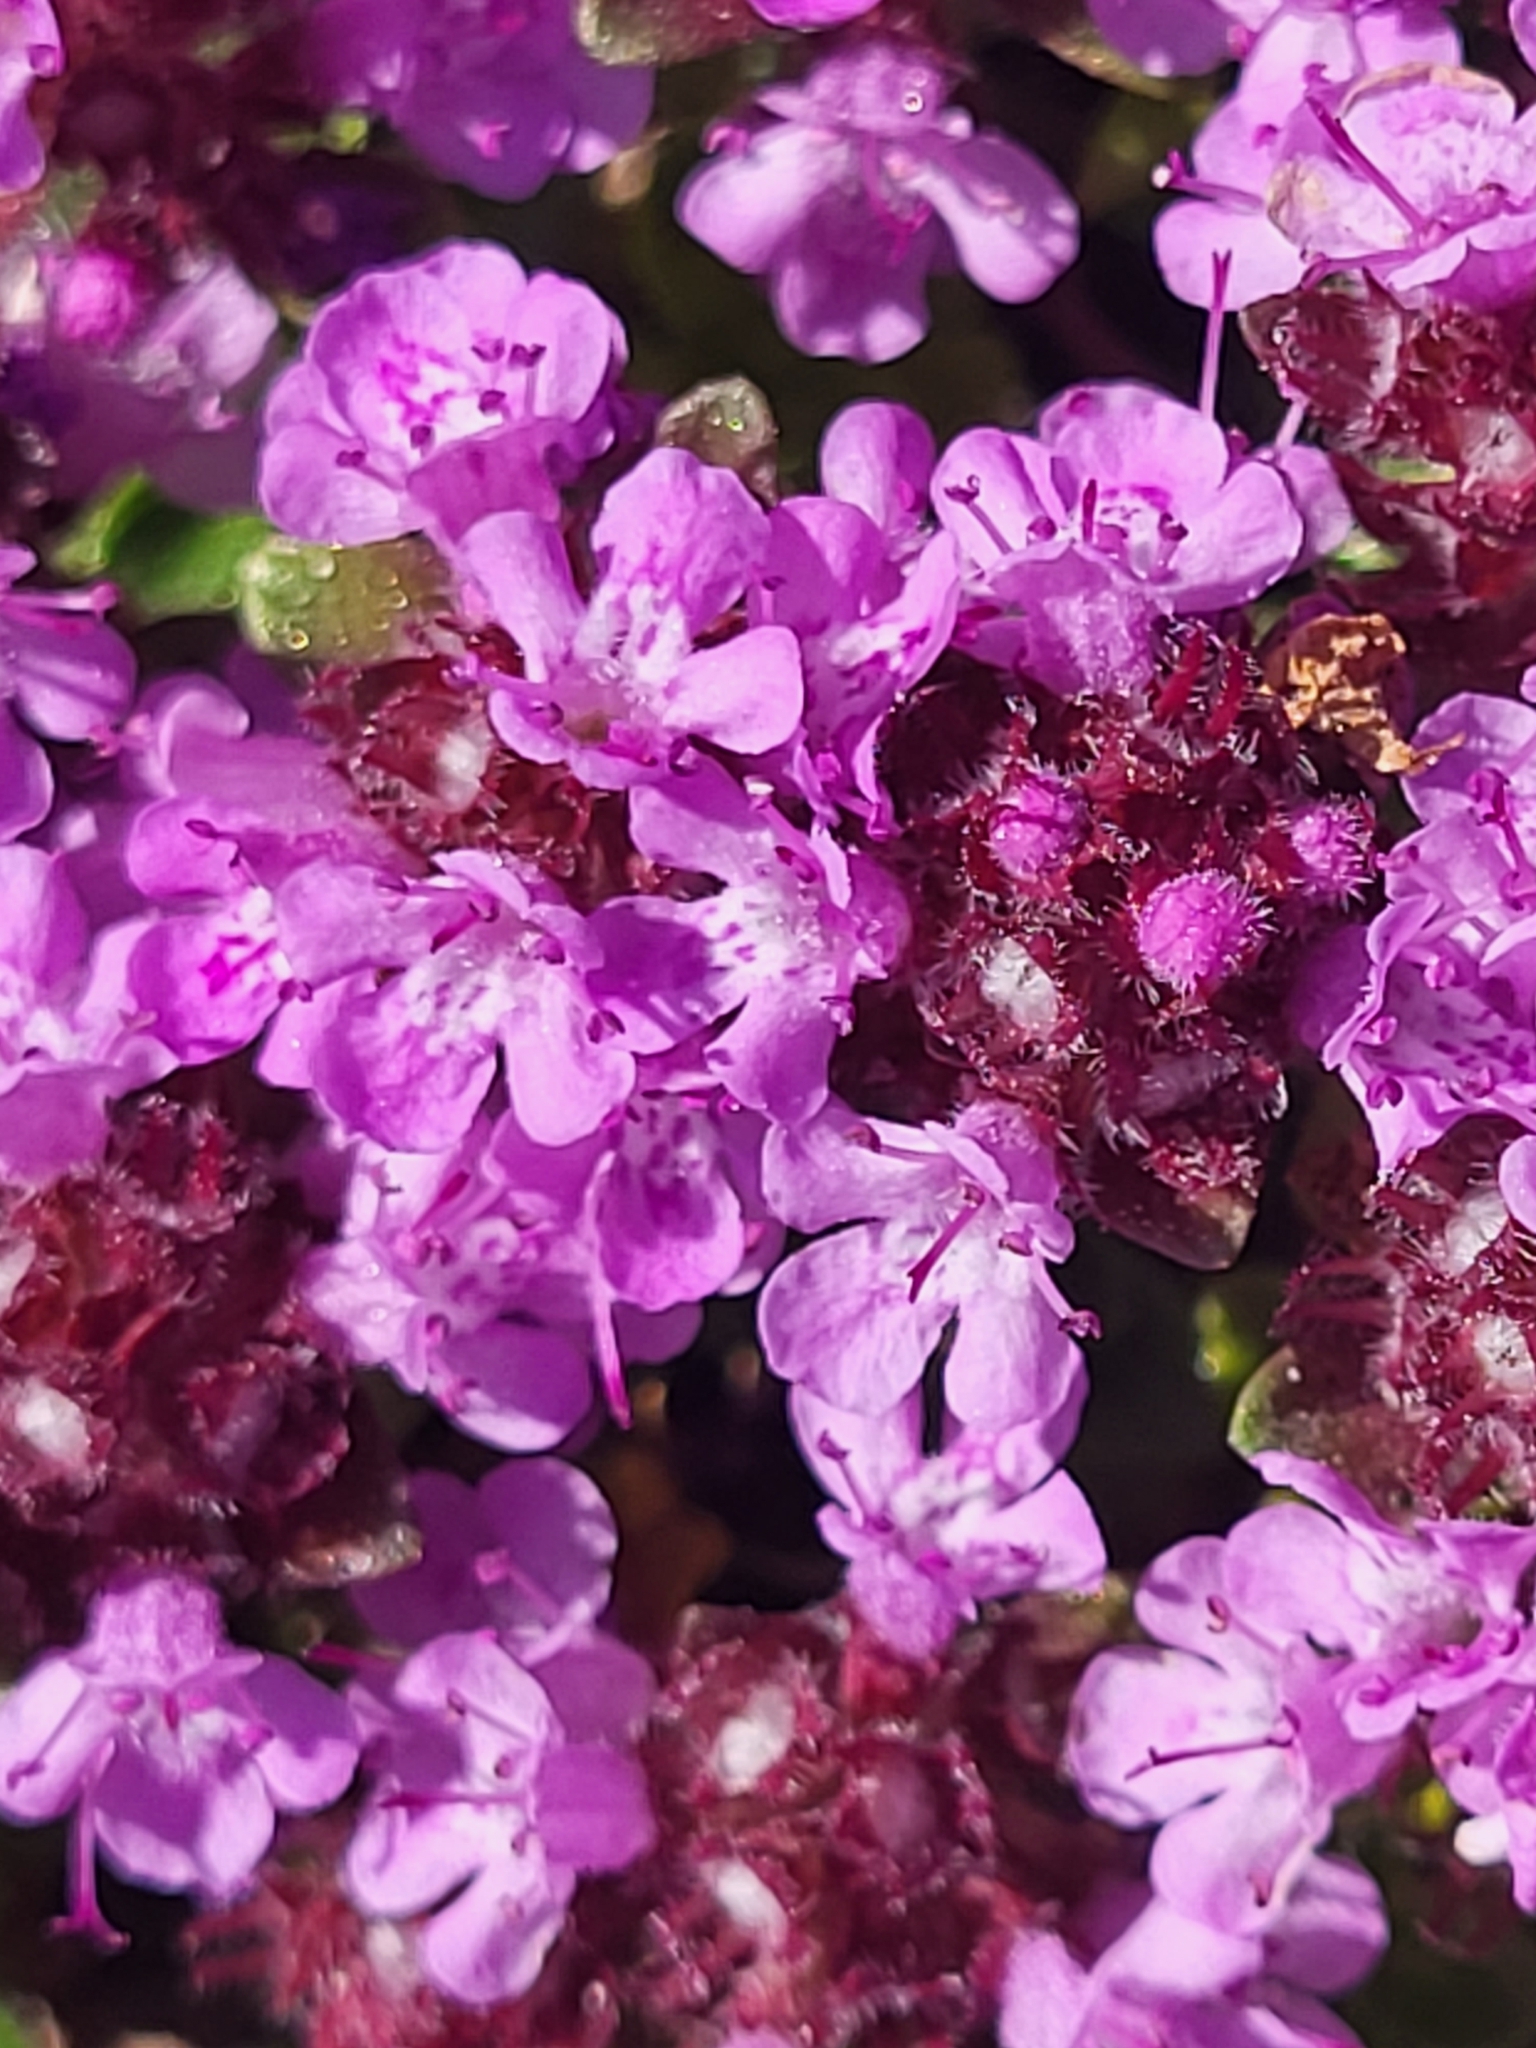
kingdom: Plantae
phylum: Tracheophyta
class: Magnoliopsida
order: Lamiales
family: Lamiaceae
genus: Thymus
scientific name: Thymus praecox
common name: Wild thyme
